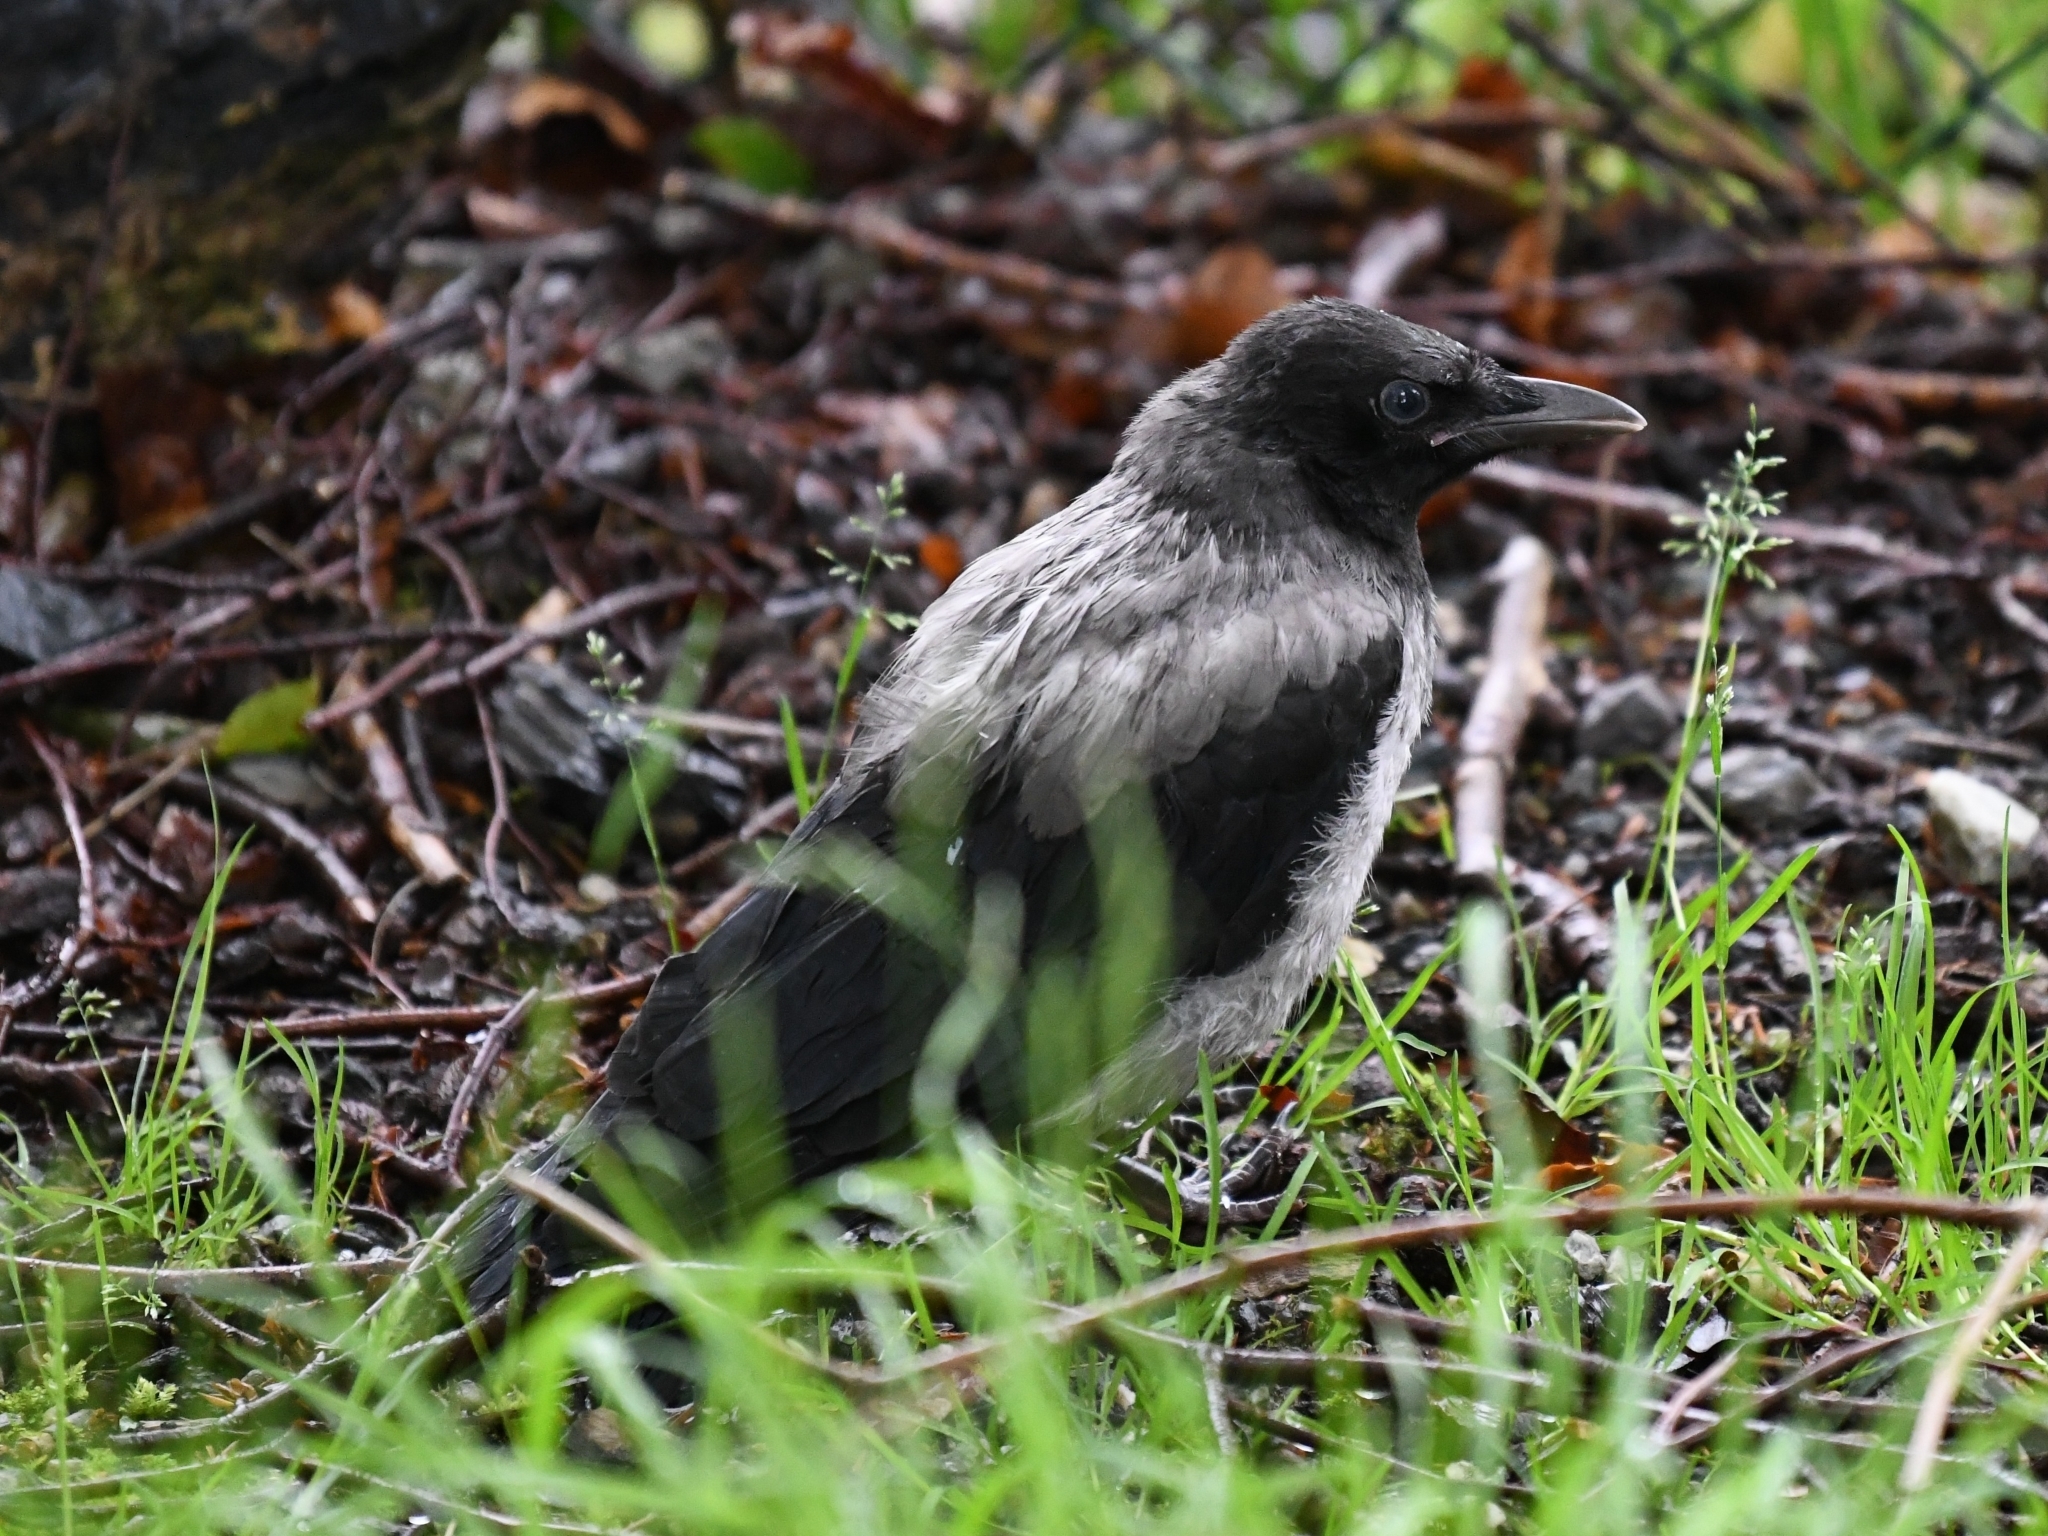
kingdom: Animalia
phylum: Chordata
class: Aves
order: Passeriformes
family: Corvidae
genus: Corvus
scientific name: Corvus cornix
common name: Hooded crow
